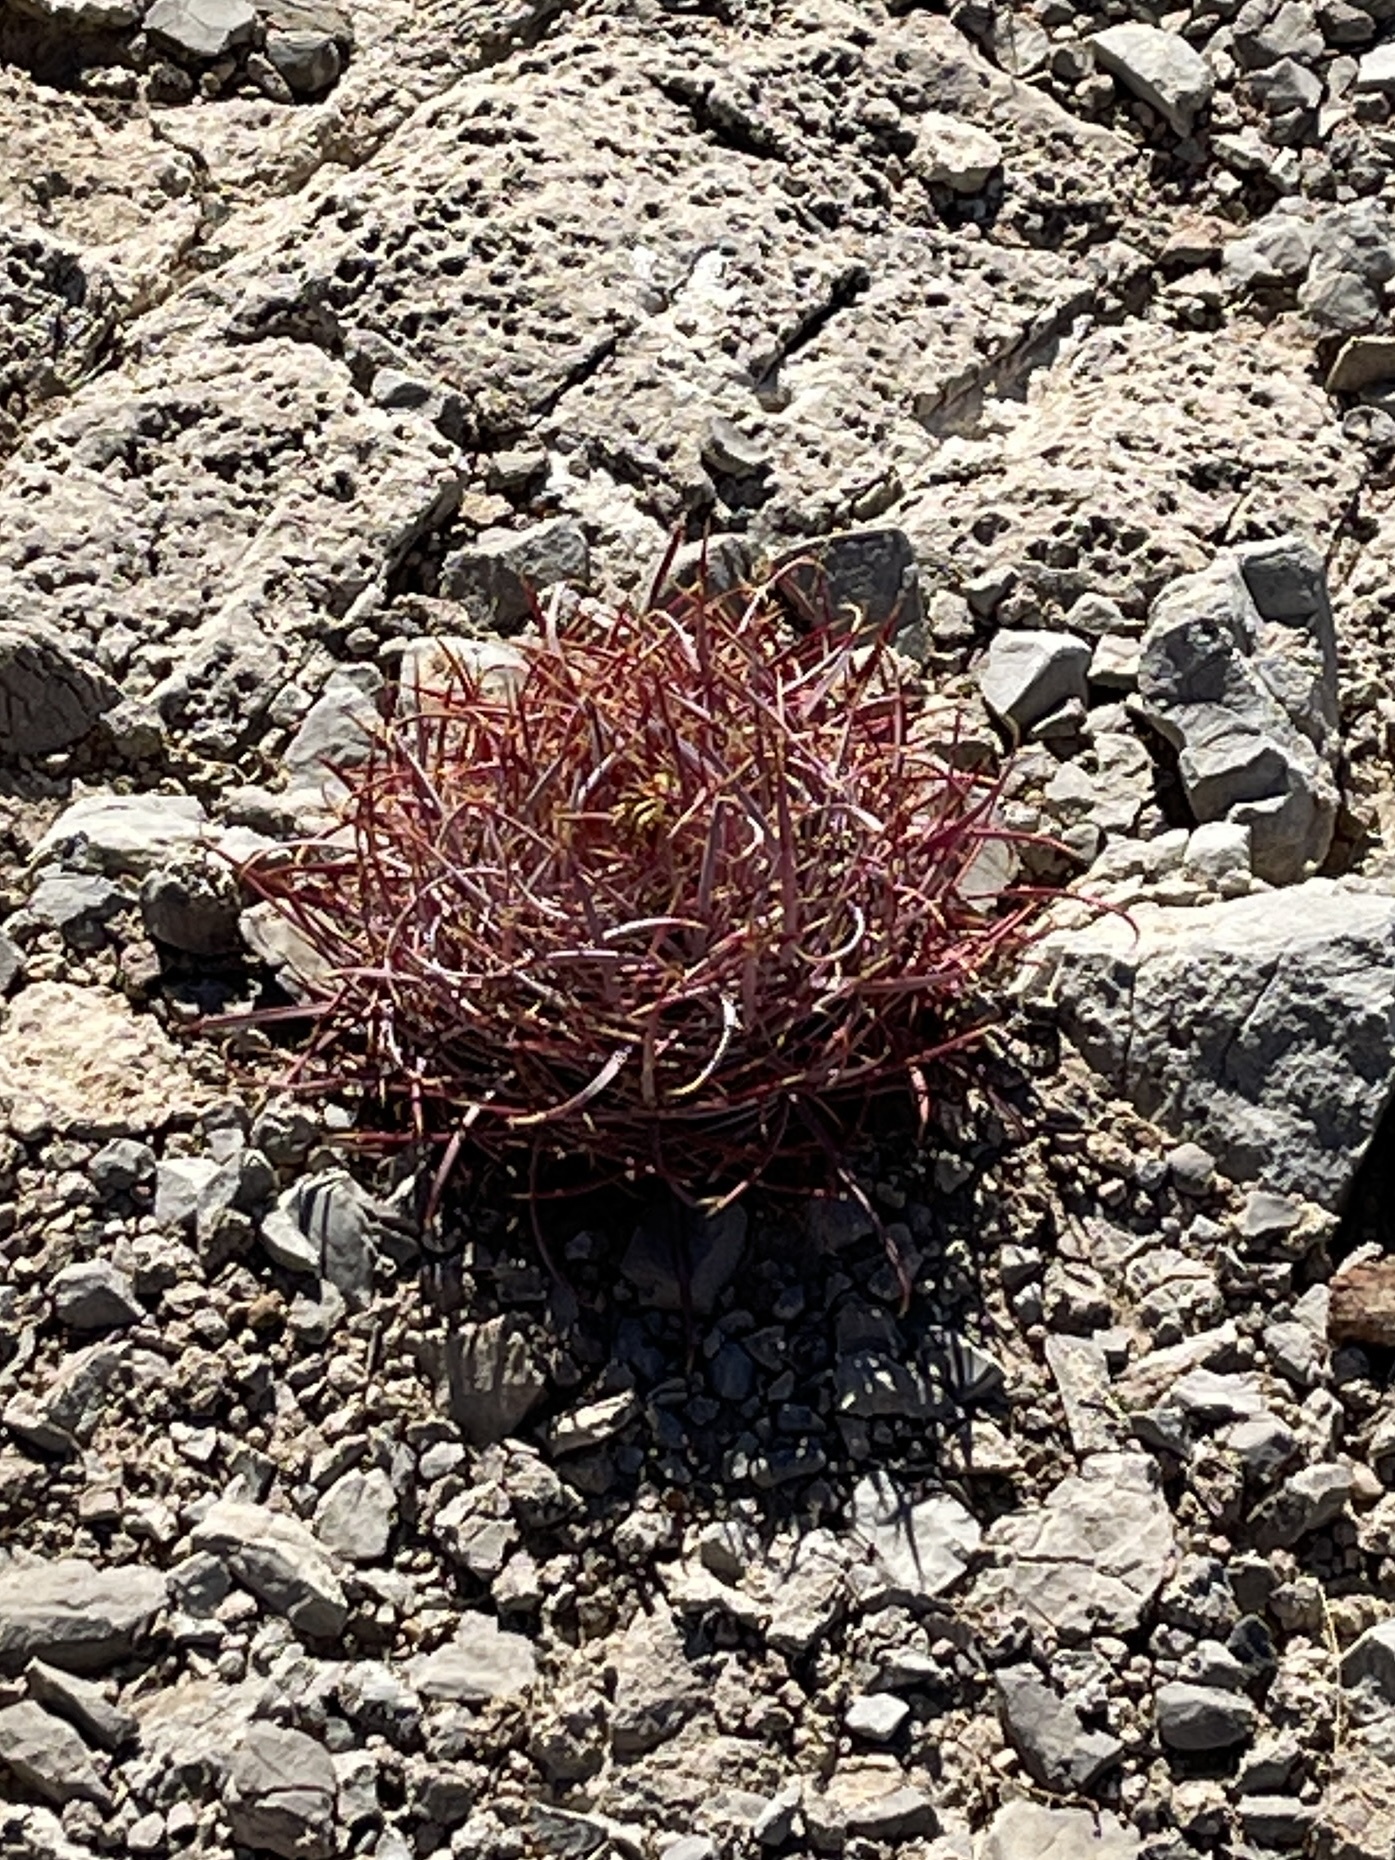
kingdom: Plantae
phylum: Tracheophyta
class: Magnoliopsida
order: Caryophyllales
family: Cactaceae
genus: Ferocactus
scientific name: Ferocactus cylindraceus
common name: California barrel cactus
